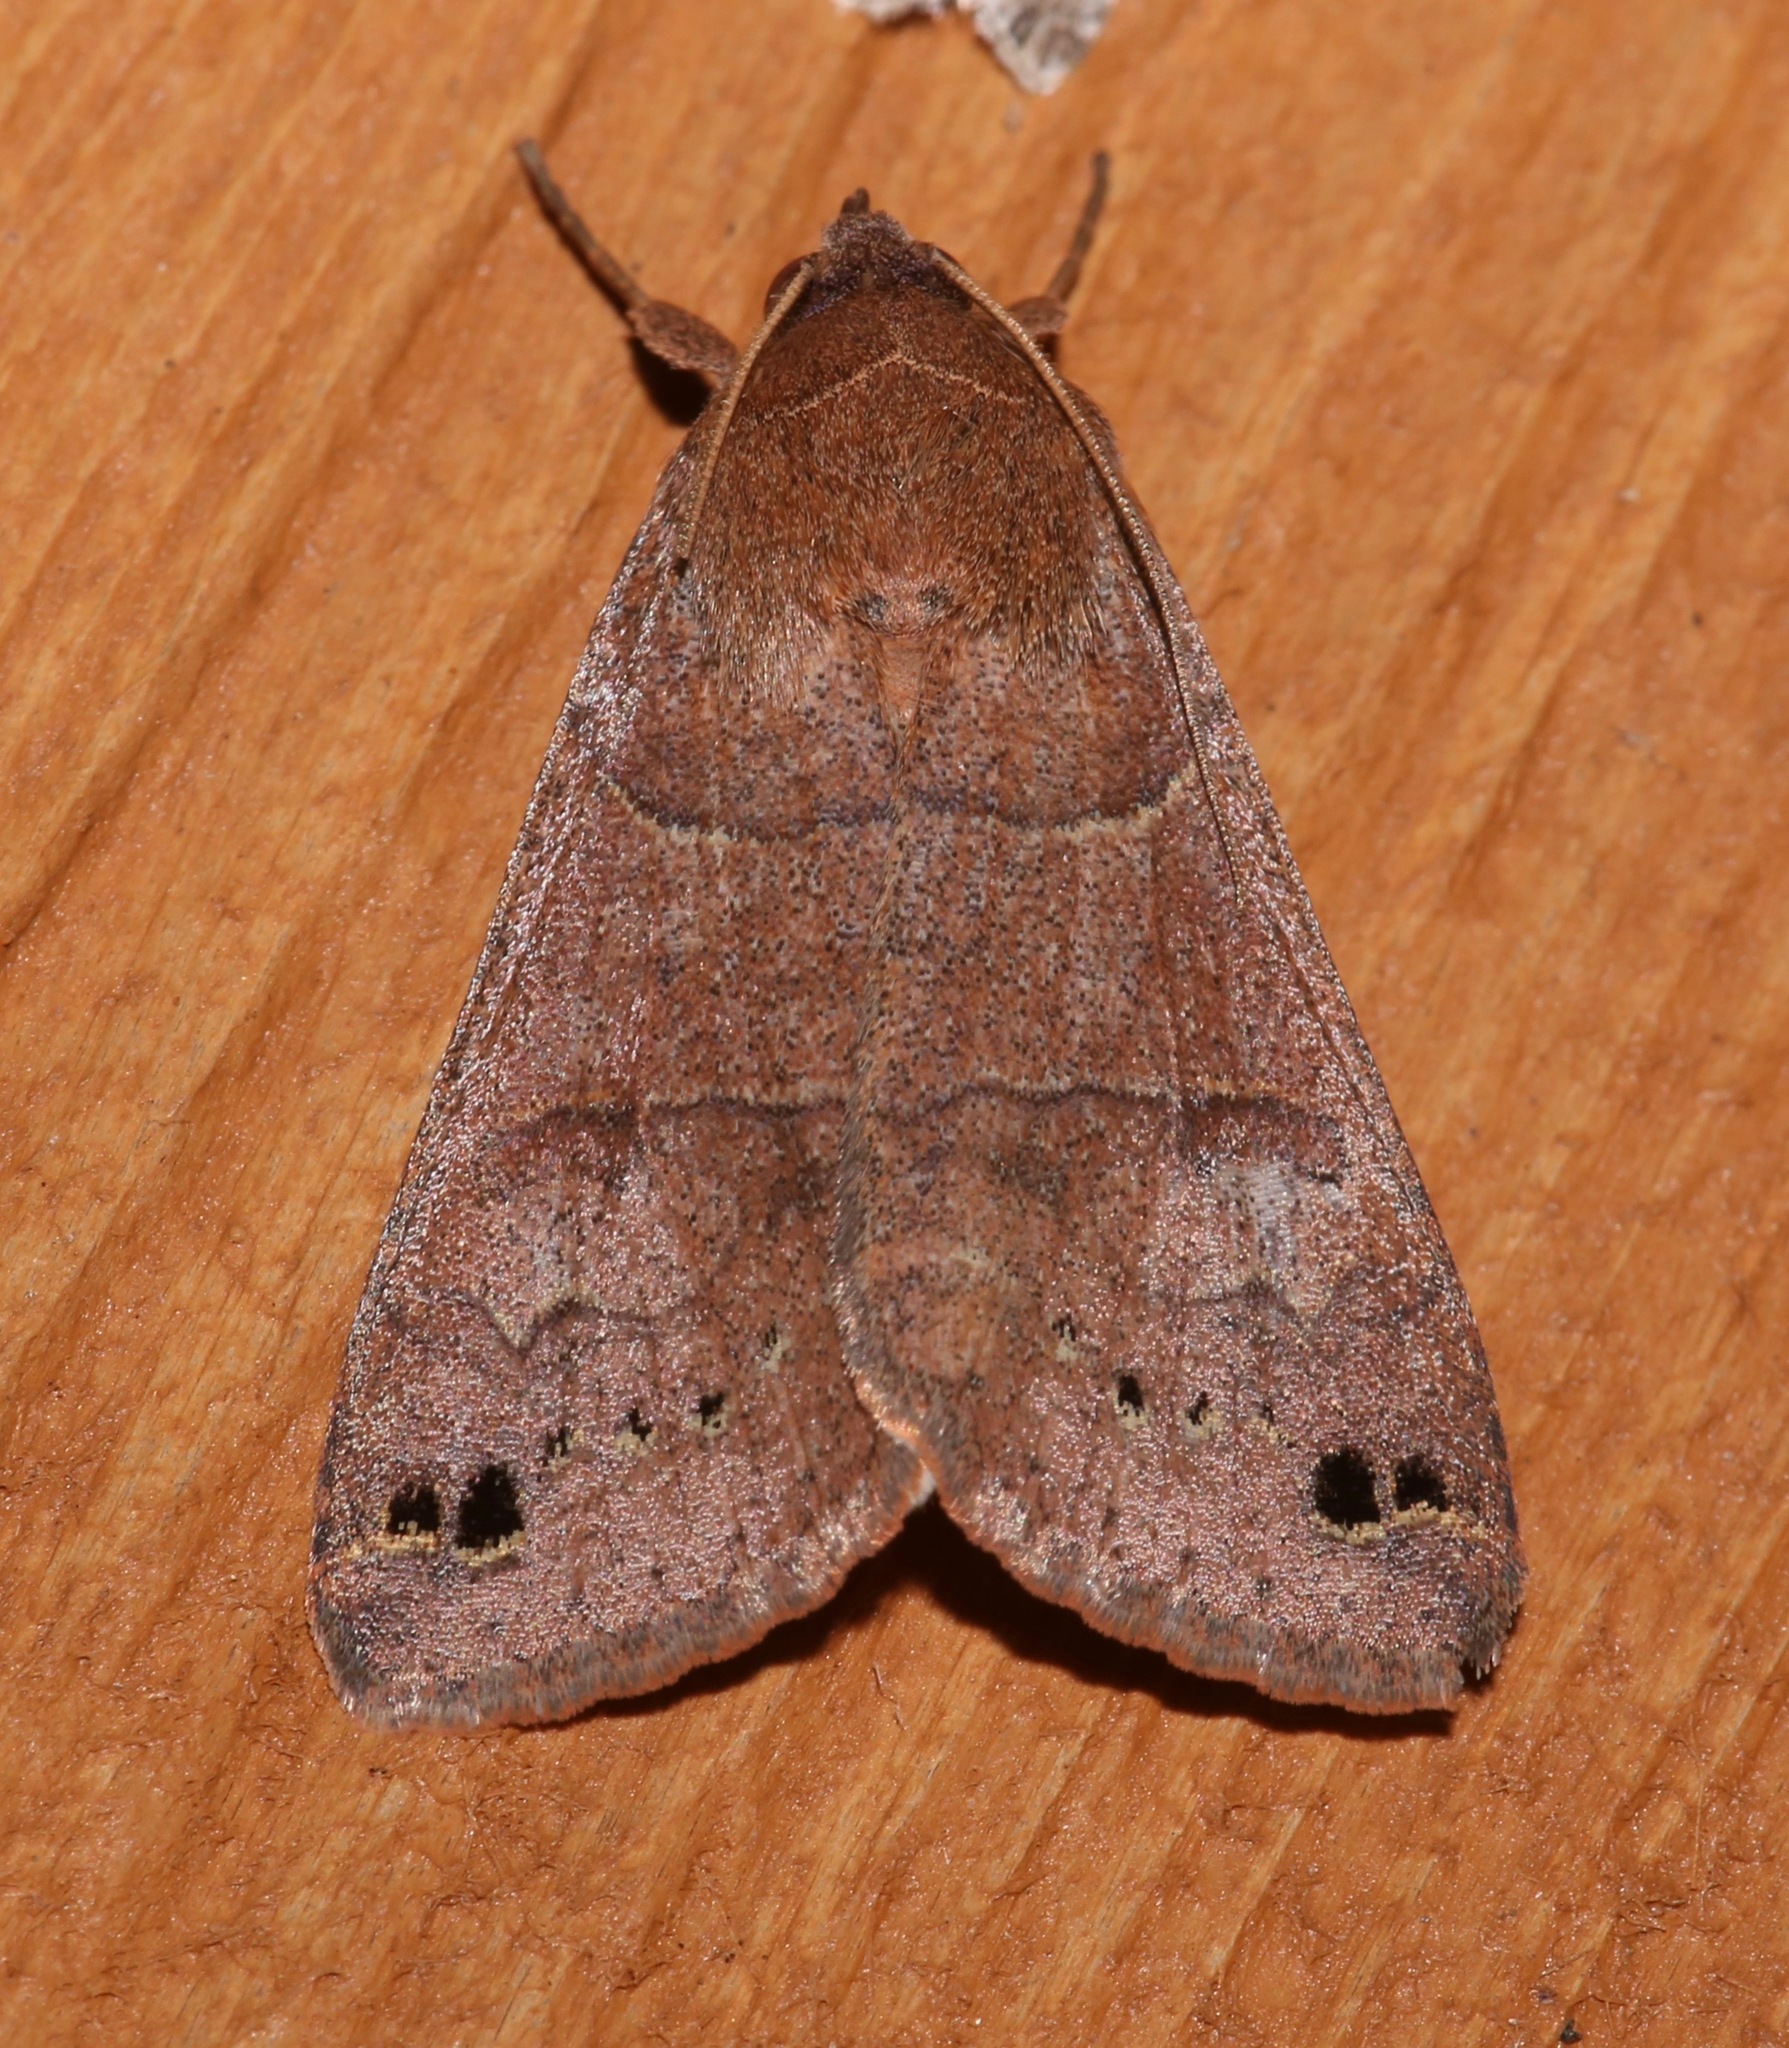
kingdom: Animalia
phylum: Arthropoda
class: Insecta
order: Lepidoptera
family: Erebidae
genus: Cissusa
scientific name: Cissusa spadix
